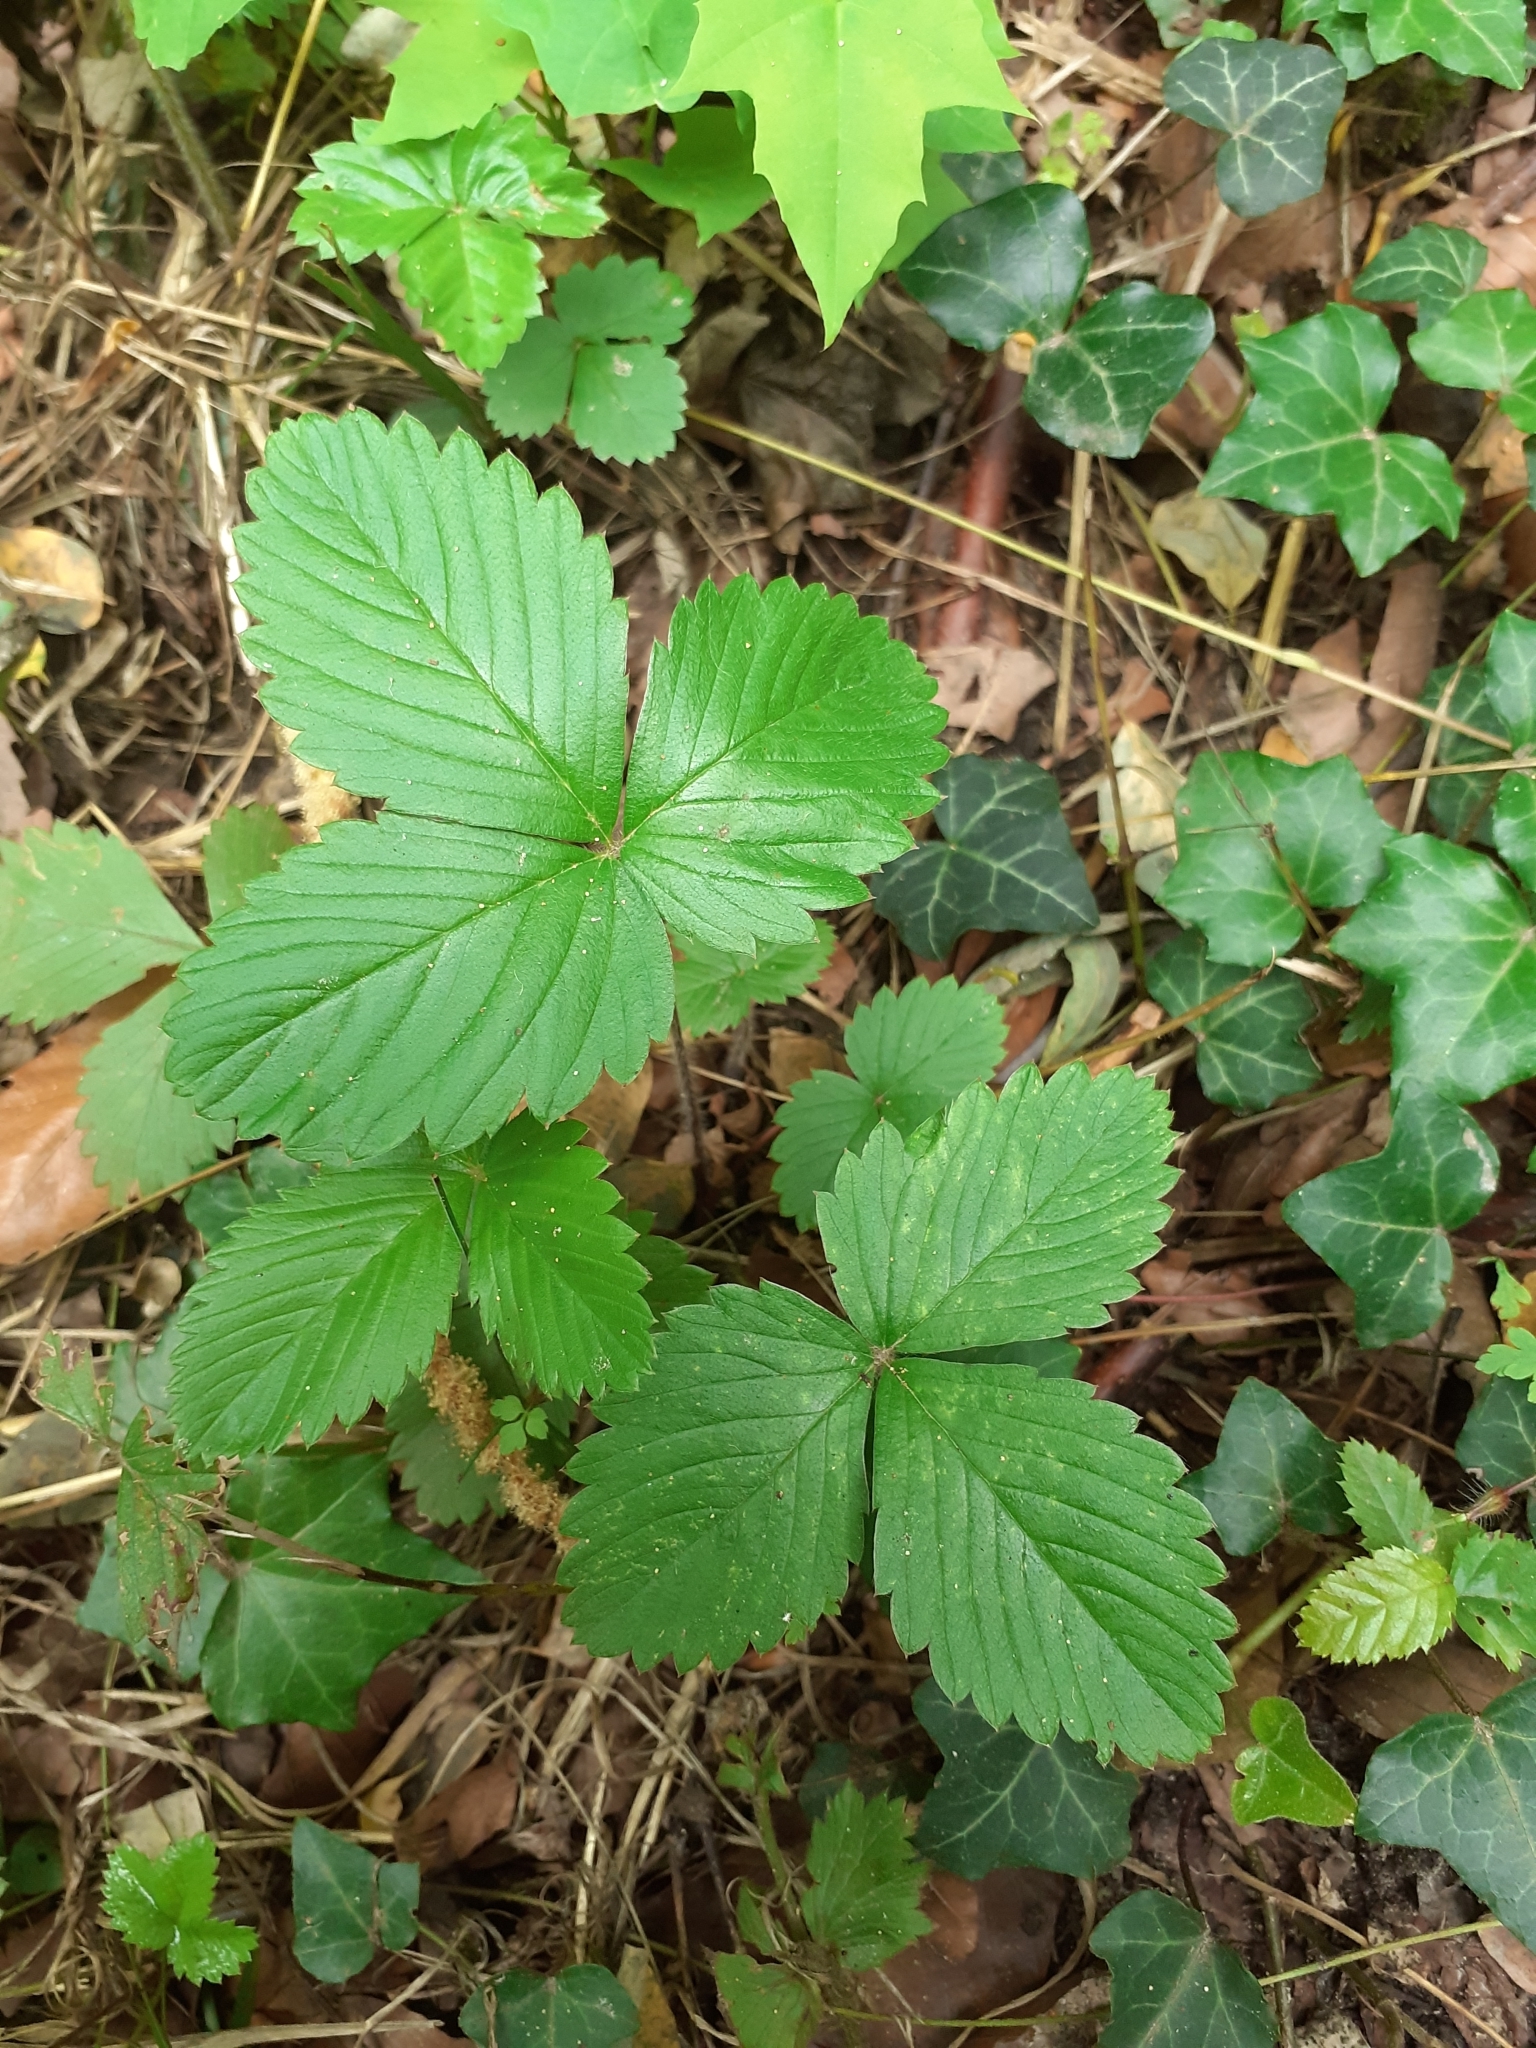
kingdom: Plantae
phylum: Tracheophyta
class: Magnoliopsida
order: Rosales
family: Rosaceae
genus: Fragaria
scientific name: Fragaria vesca
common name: Wild strawberry
